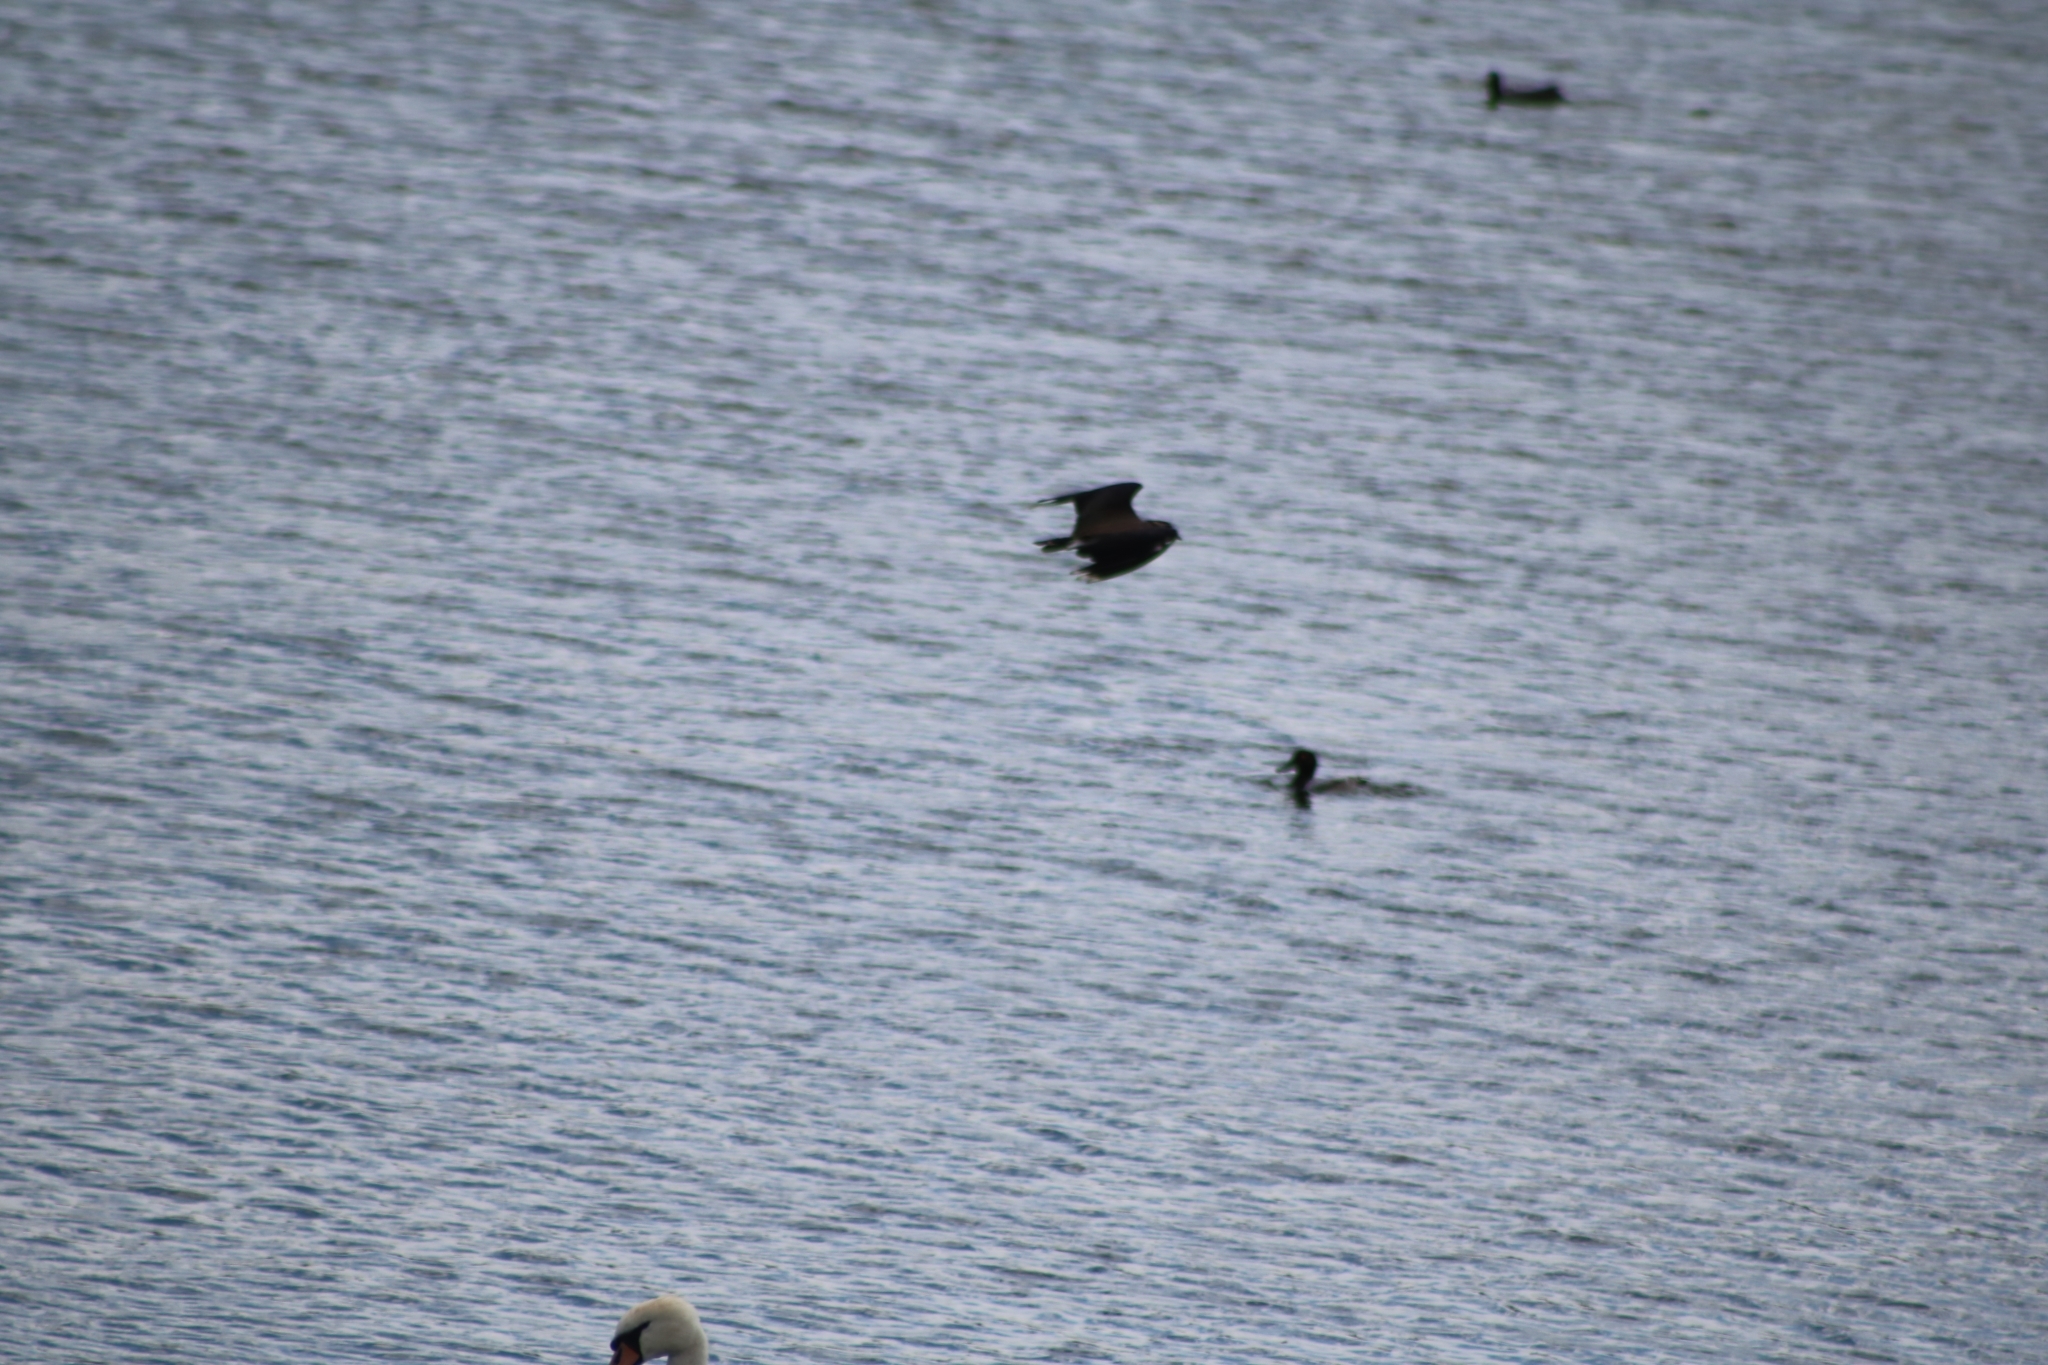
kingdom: Animalia
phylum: Chordata
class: Aves
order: Charadriiformes
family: Charadriidae
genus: Vanellus
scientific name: Vanellus vanellus
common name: Northern lapwing
